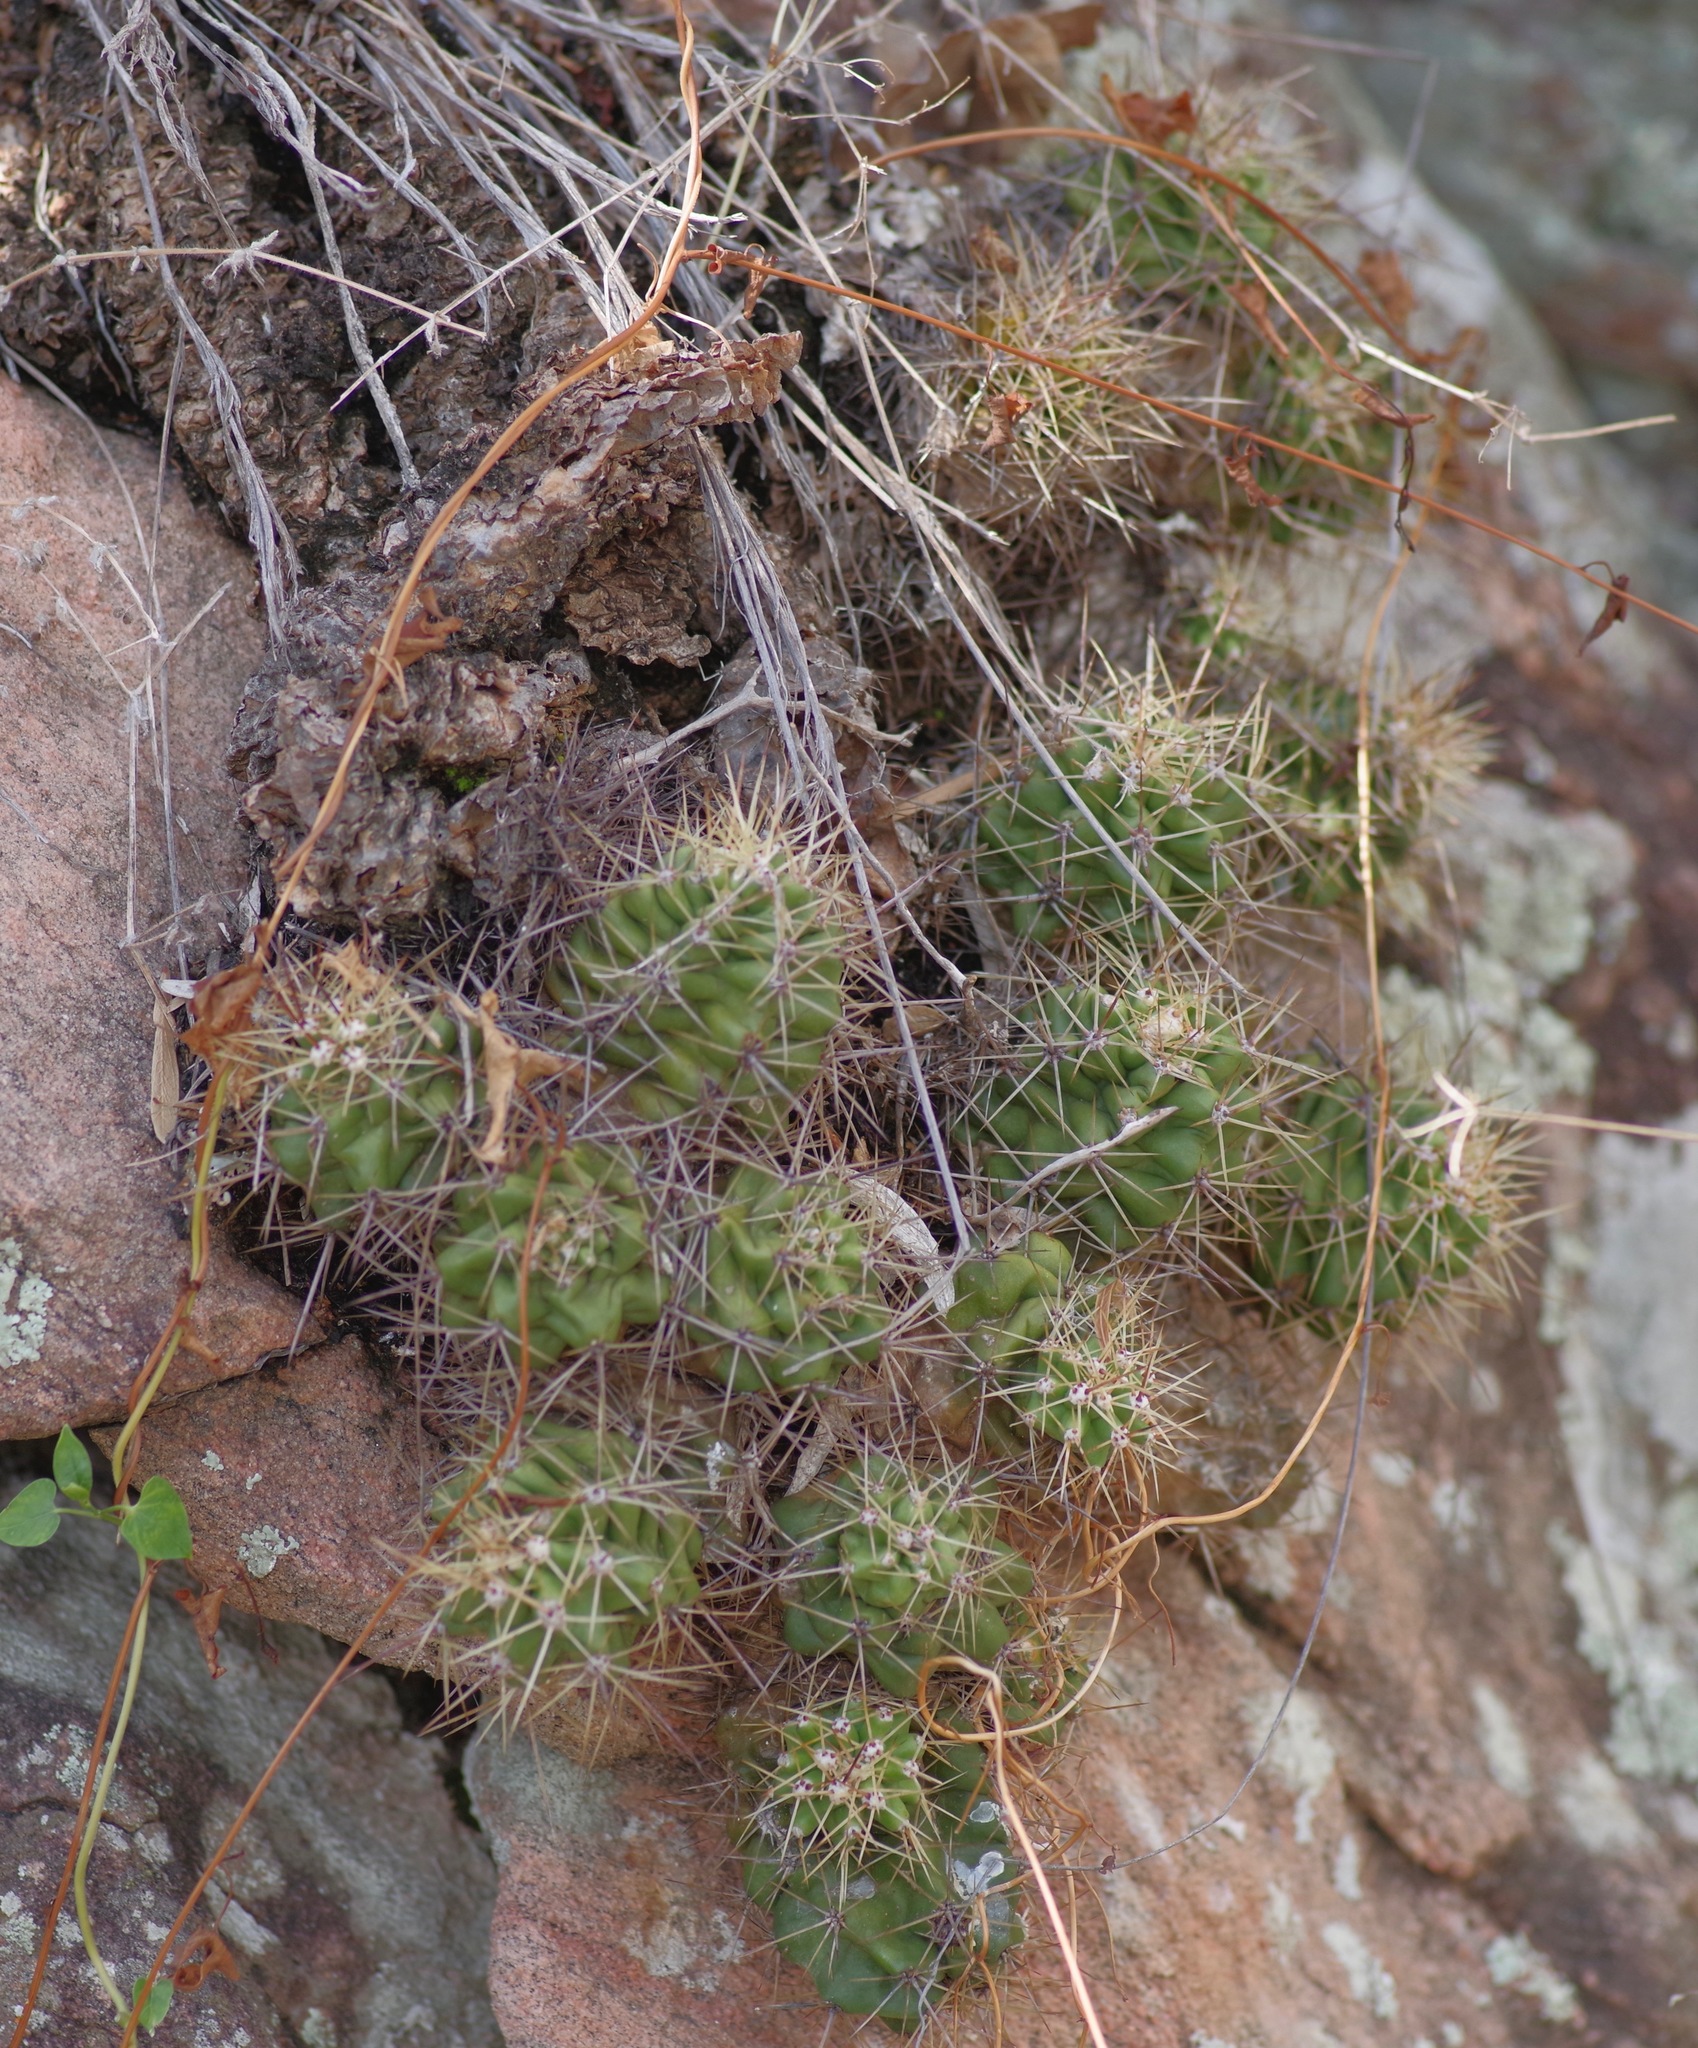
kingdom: Plantae
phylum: Tracheophyta
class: Magnoliopsida
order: Caryophyllales
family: Cactaceae
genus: Echinocereus
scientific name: Echinocereus coccineus
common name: Scarlet hedgehog cactus
